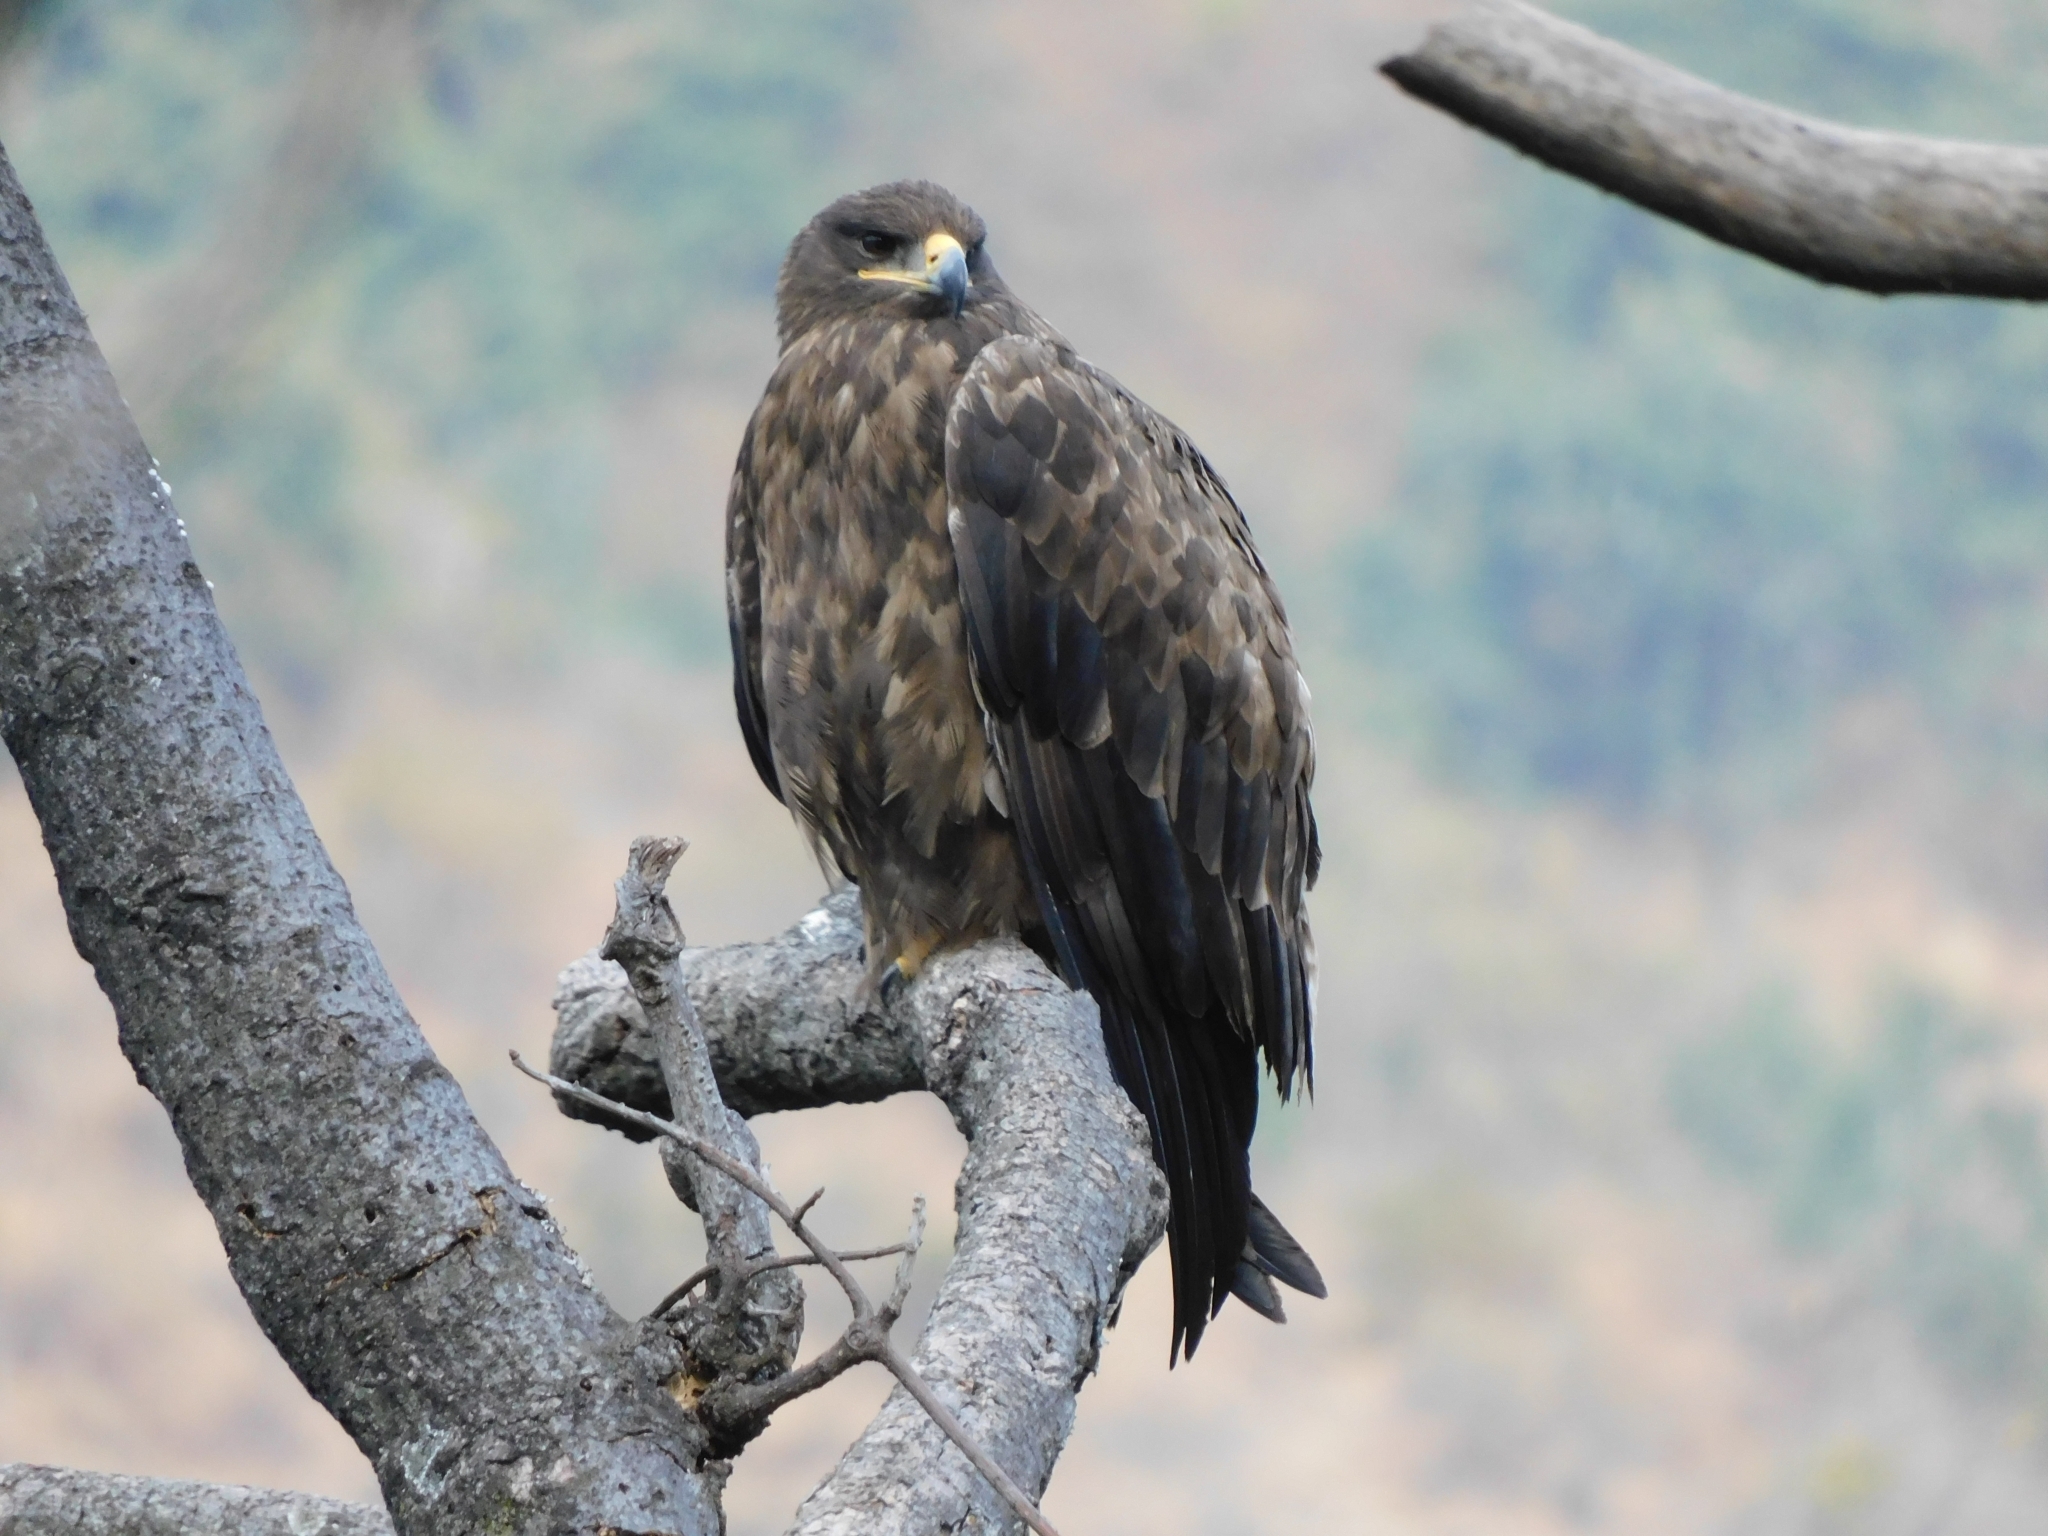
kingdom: Animalia
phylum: Chordata
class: Aves
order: Accipitriformes
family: Accipitridae
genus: Milvus
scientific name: Milvus migrans
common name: Black kite
